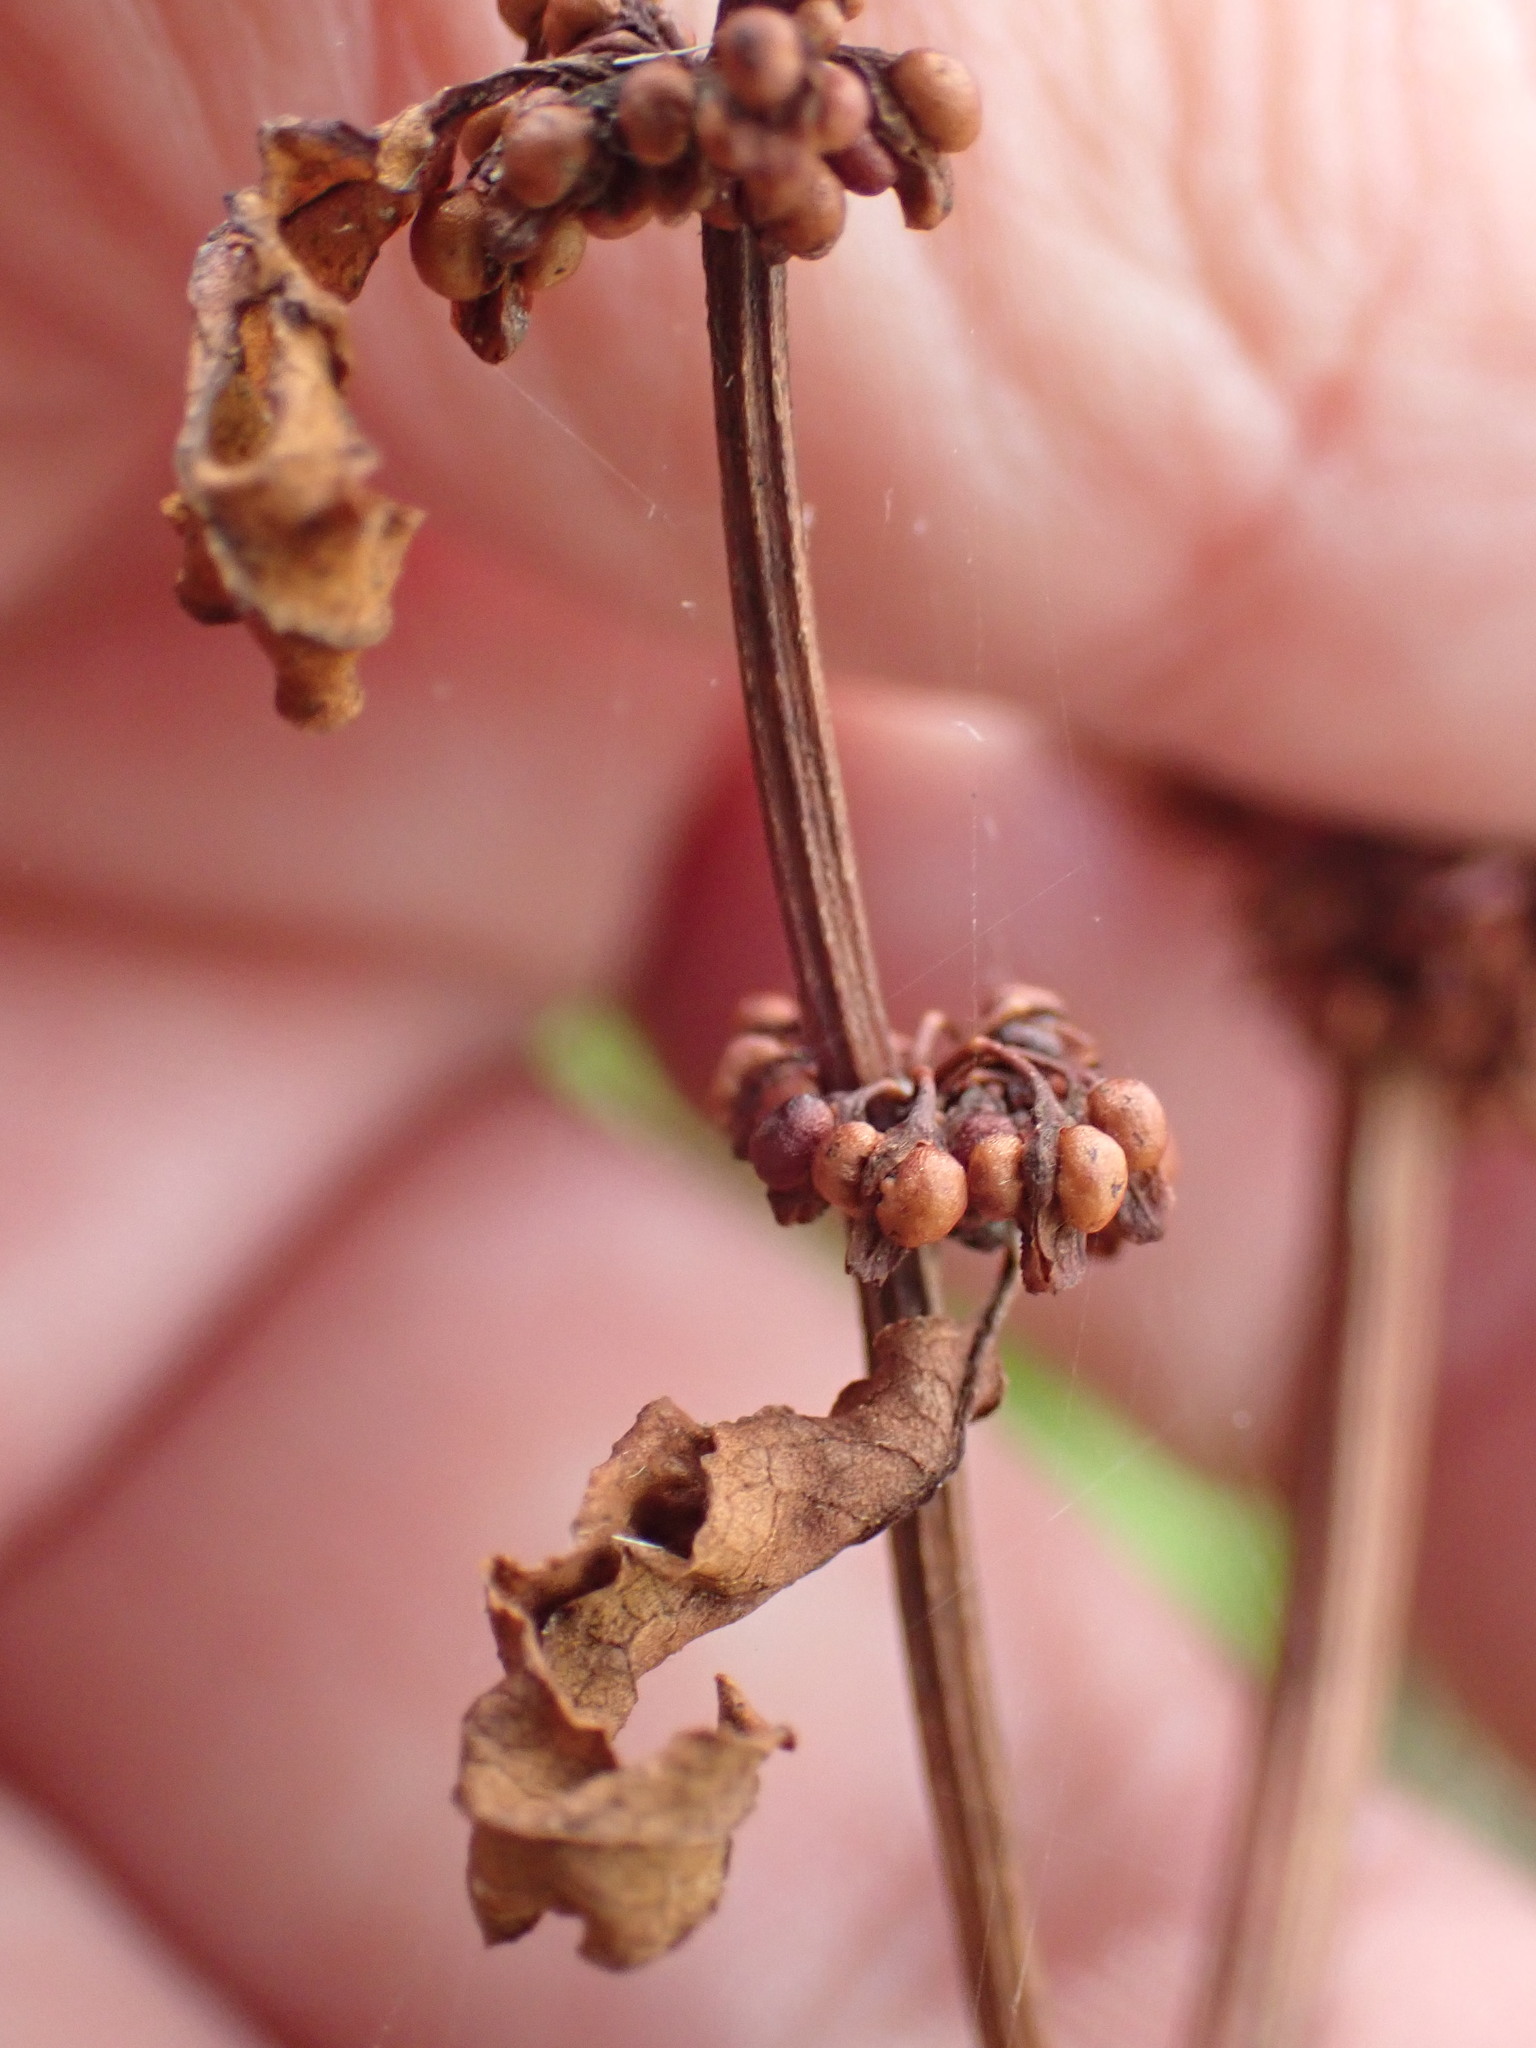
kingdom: Plantae
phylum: Tracheophyta
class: Magnoliopsida
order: Caryophyllales
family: Polygonaceae
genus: Rumex
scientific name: Rumex conglomeratus
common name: Clustered dock
